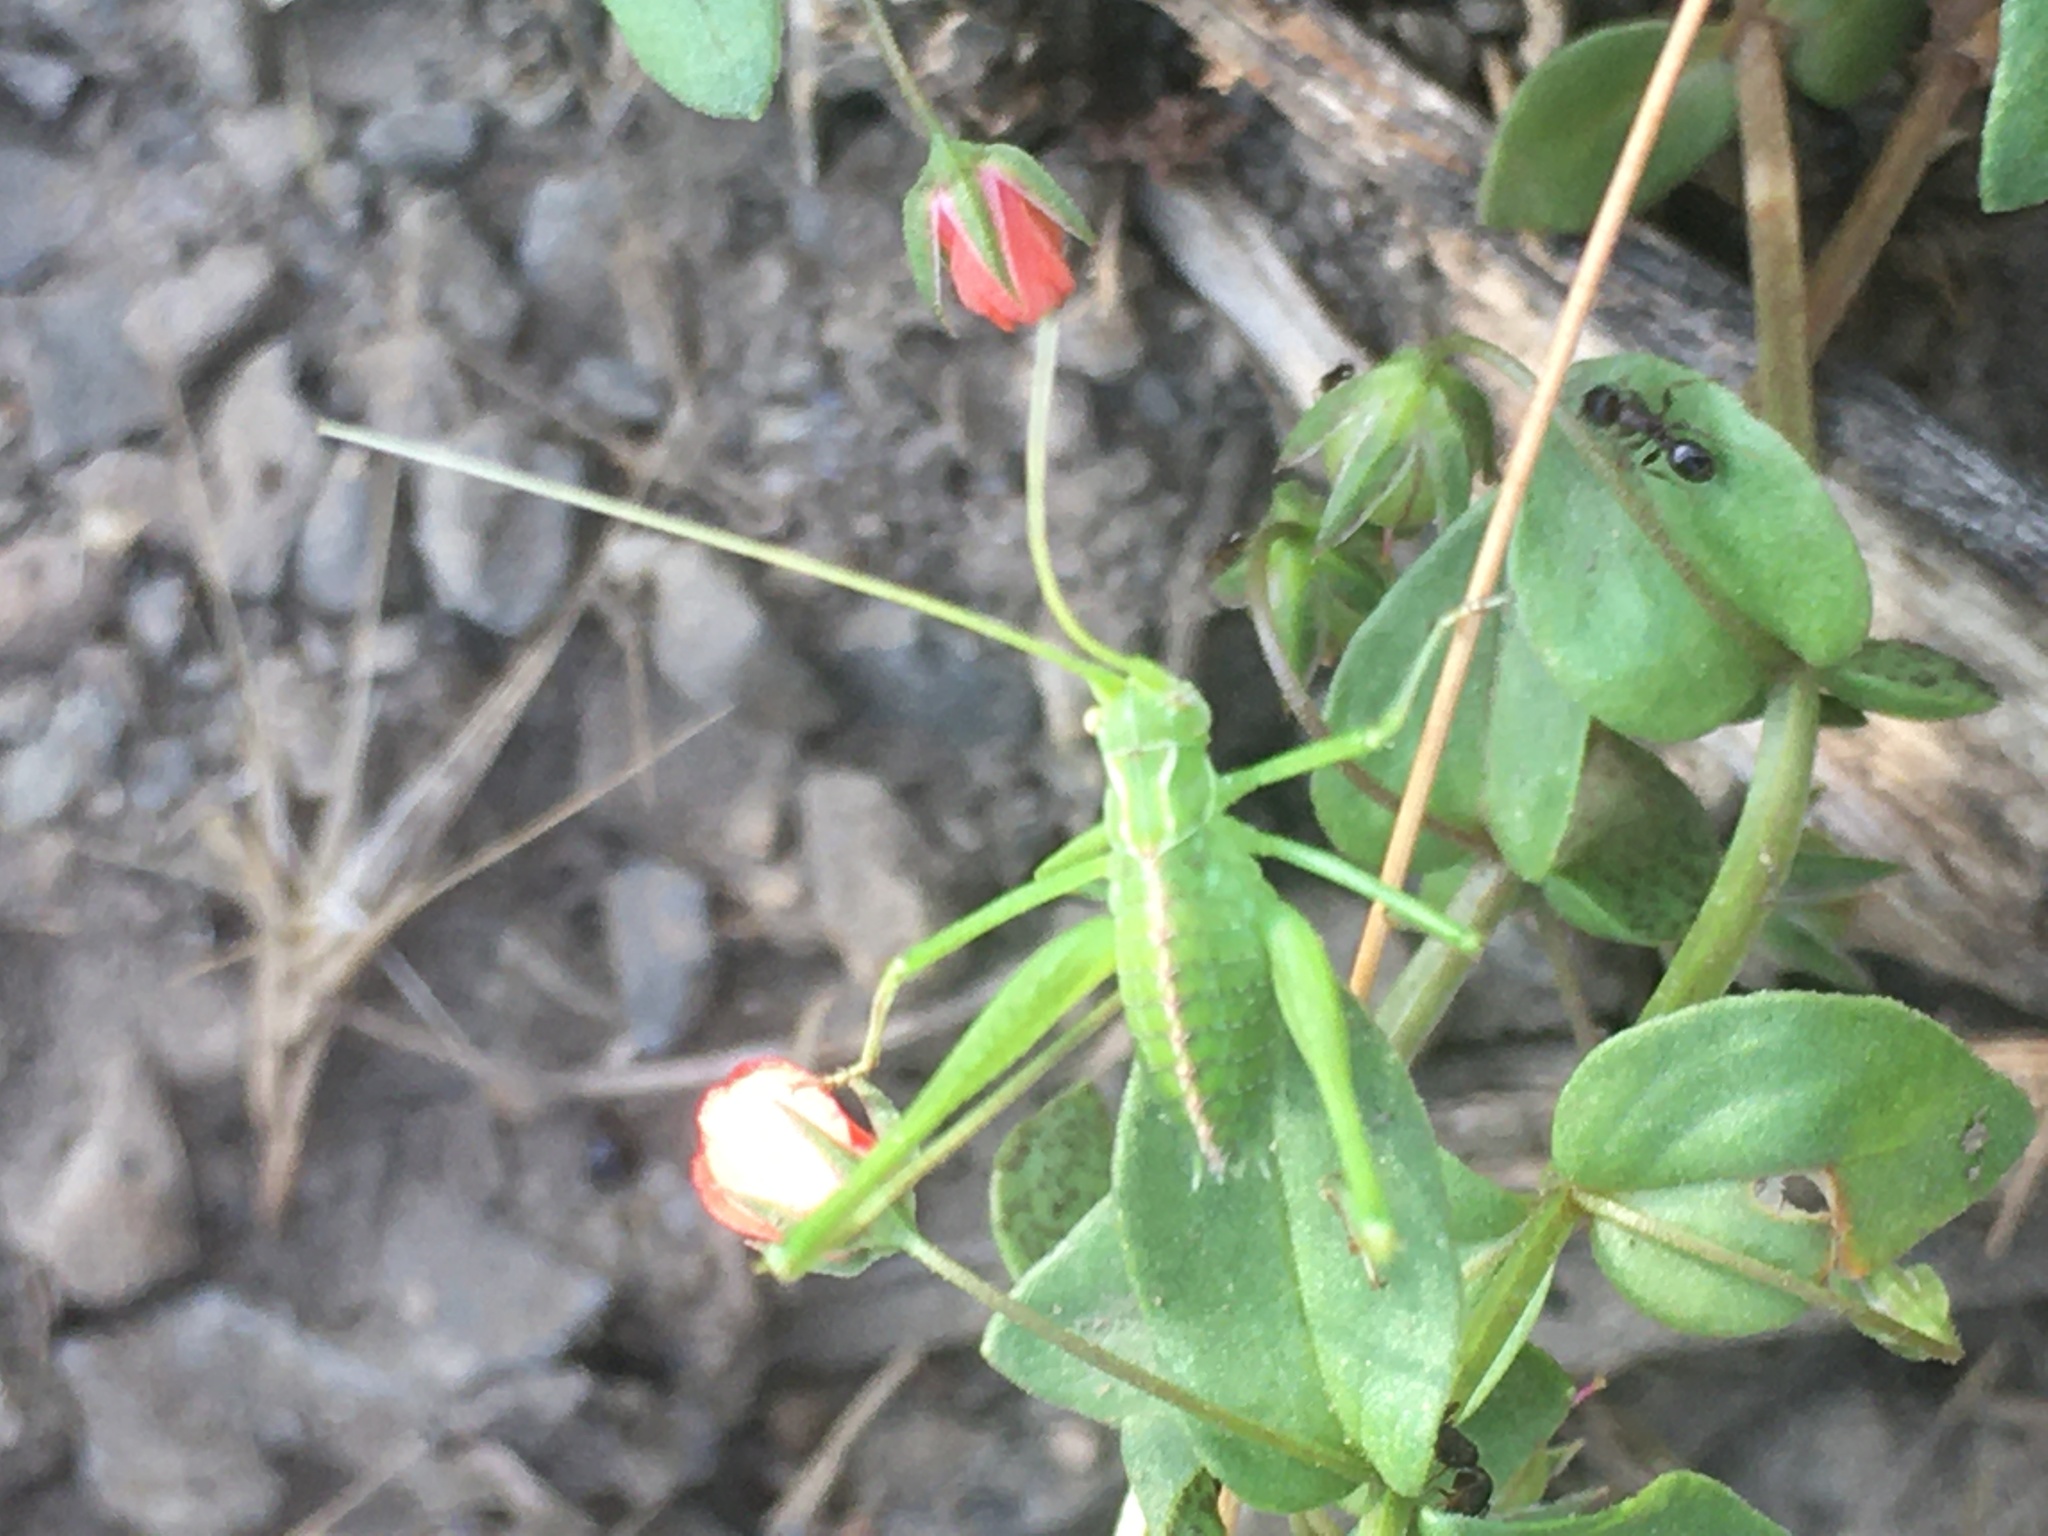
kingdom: Animalia
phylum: Arthropoda
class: Insecta
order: Orthoptera
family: Tettigoniidae
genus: Tylopsis
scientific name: Tylopsis lilifolia
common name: Lily bush-cricket
